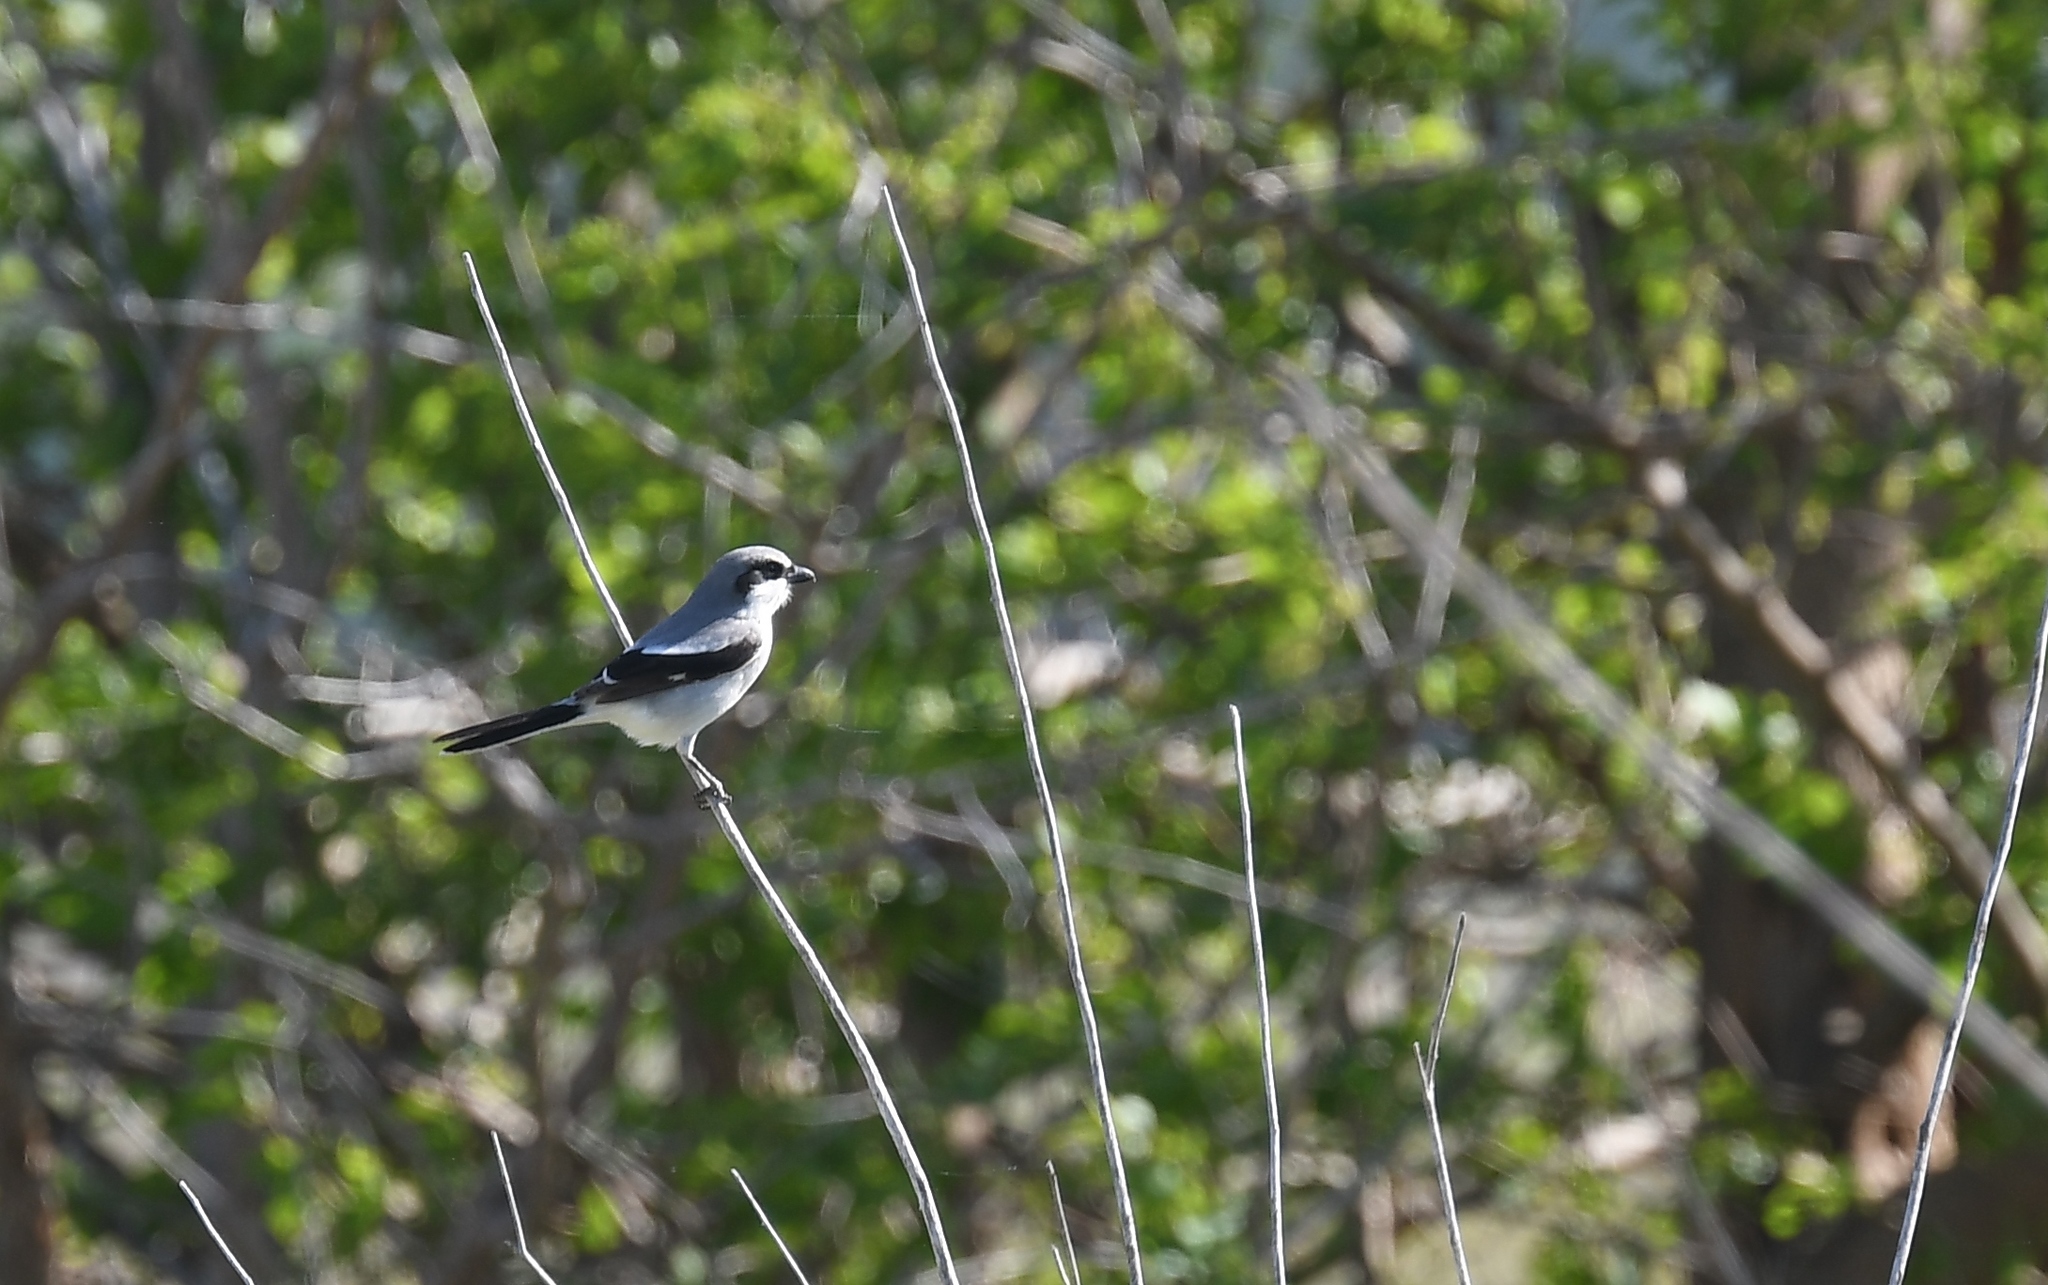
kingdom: Animalia
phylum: Chordata
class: Aves
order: Passeriformes
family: Laniidae
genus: Lanius
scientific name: Lanius ludovicianus
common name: Loggerhead shrike
